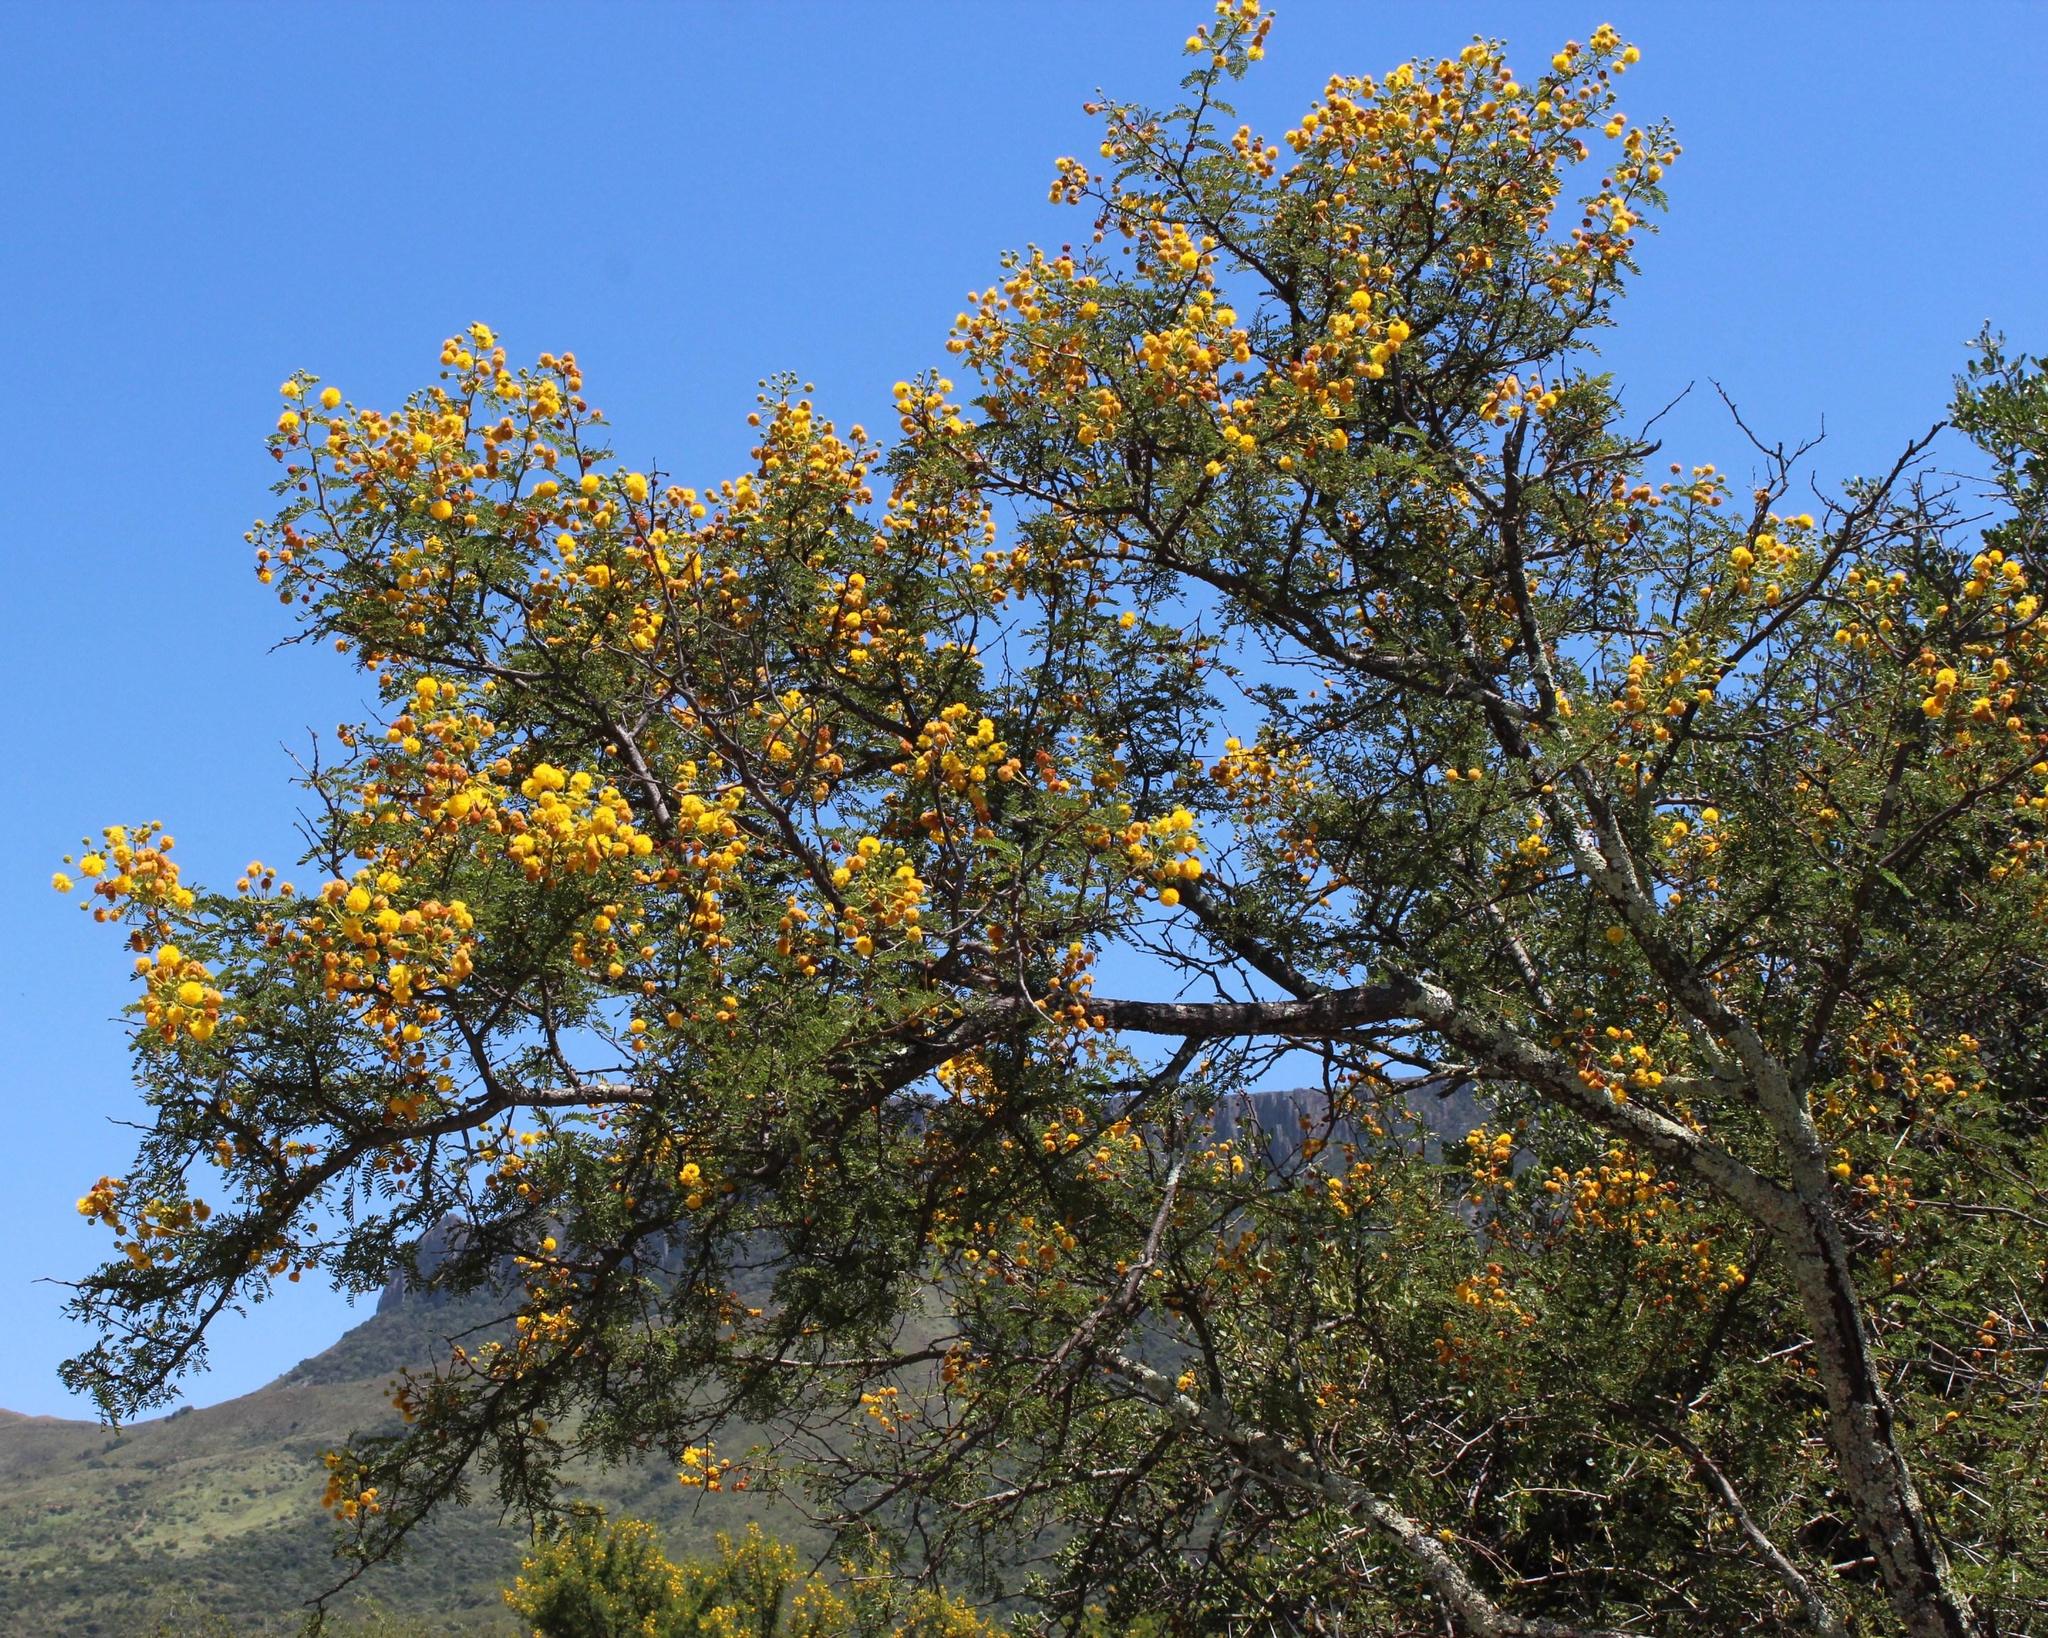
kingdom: Plantae
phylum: Tracheophyta
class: Magnoliopsida
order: Fabales
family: Fabaceae
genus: Vachellia
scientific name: Vachellia karroo
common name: Sweet thorn
